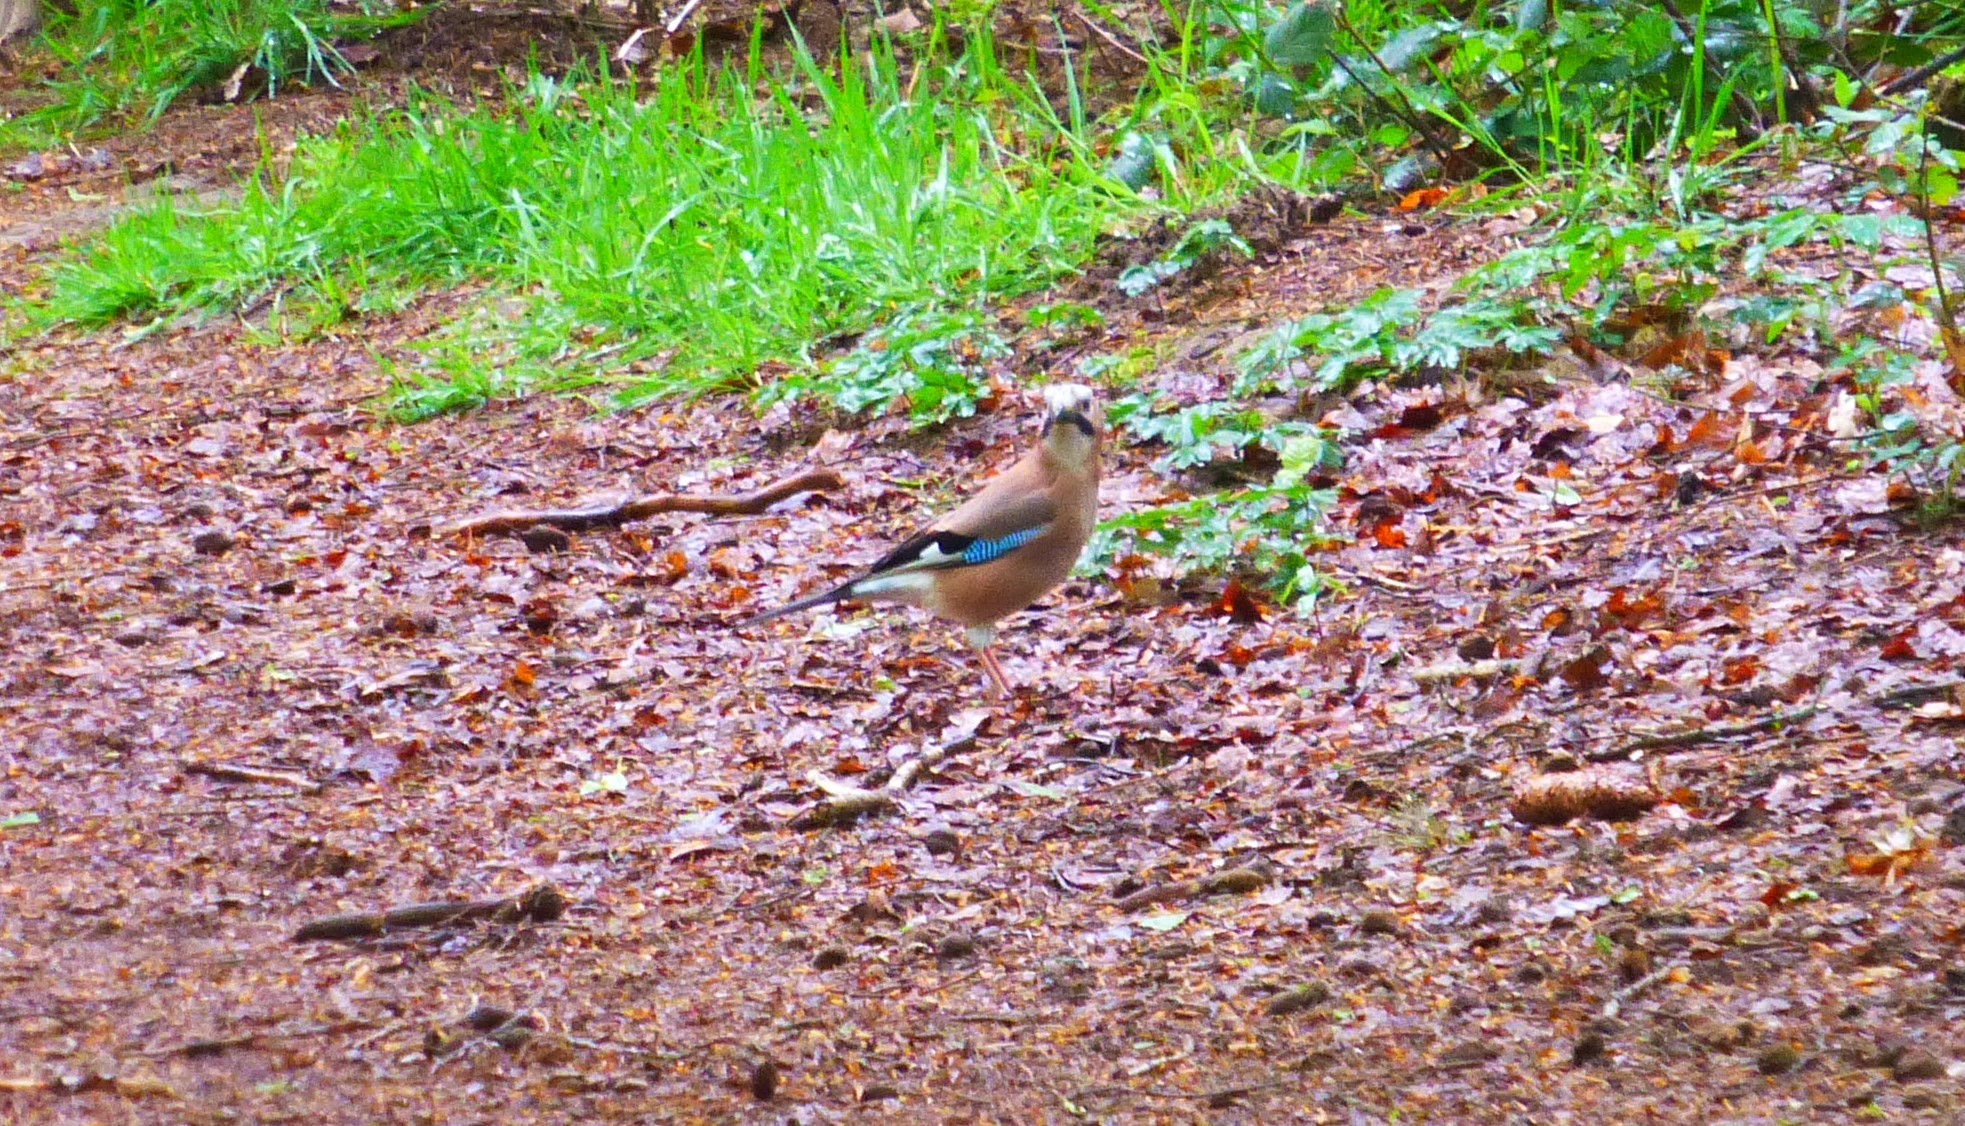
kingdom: Animalia
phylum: Chordata
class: Aves
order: Passeriformes
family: Corvidae
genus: Garrulus
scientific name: Garrulus glandarius
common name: Eurasian jay
